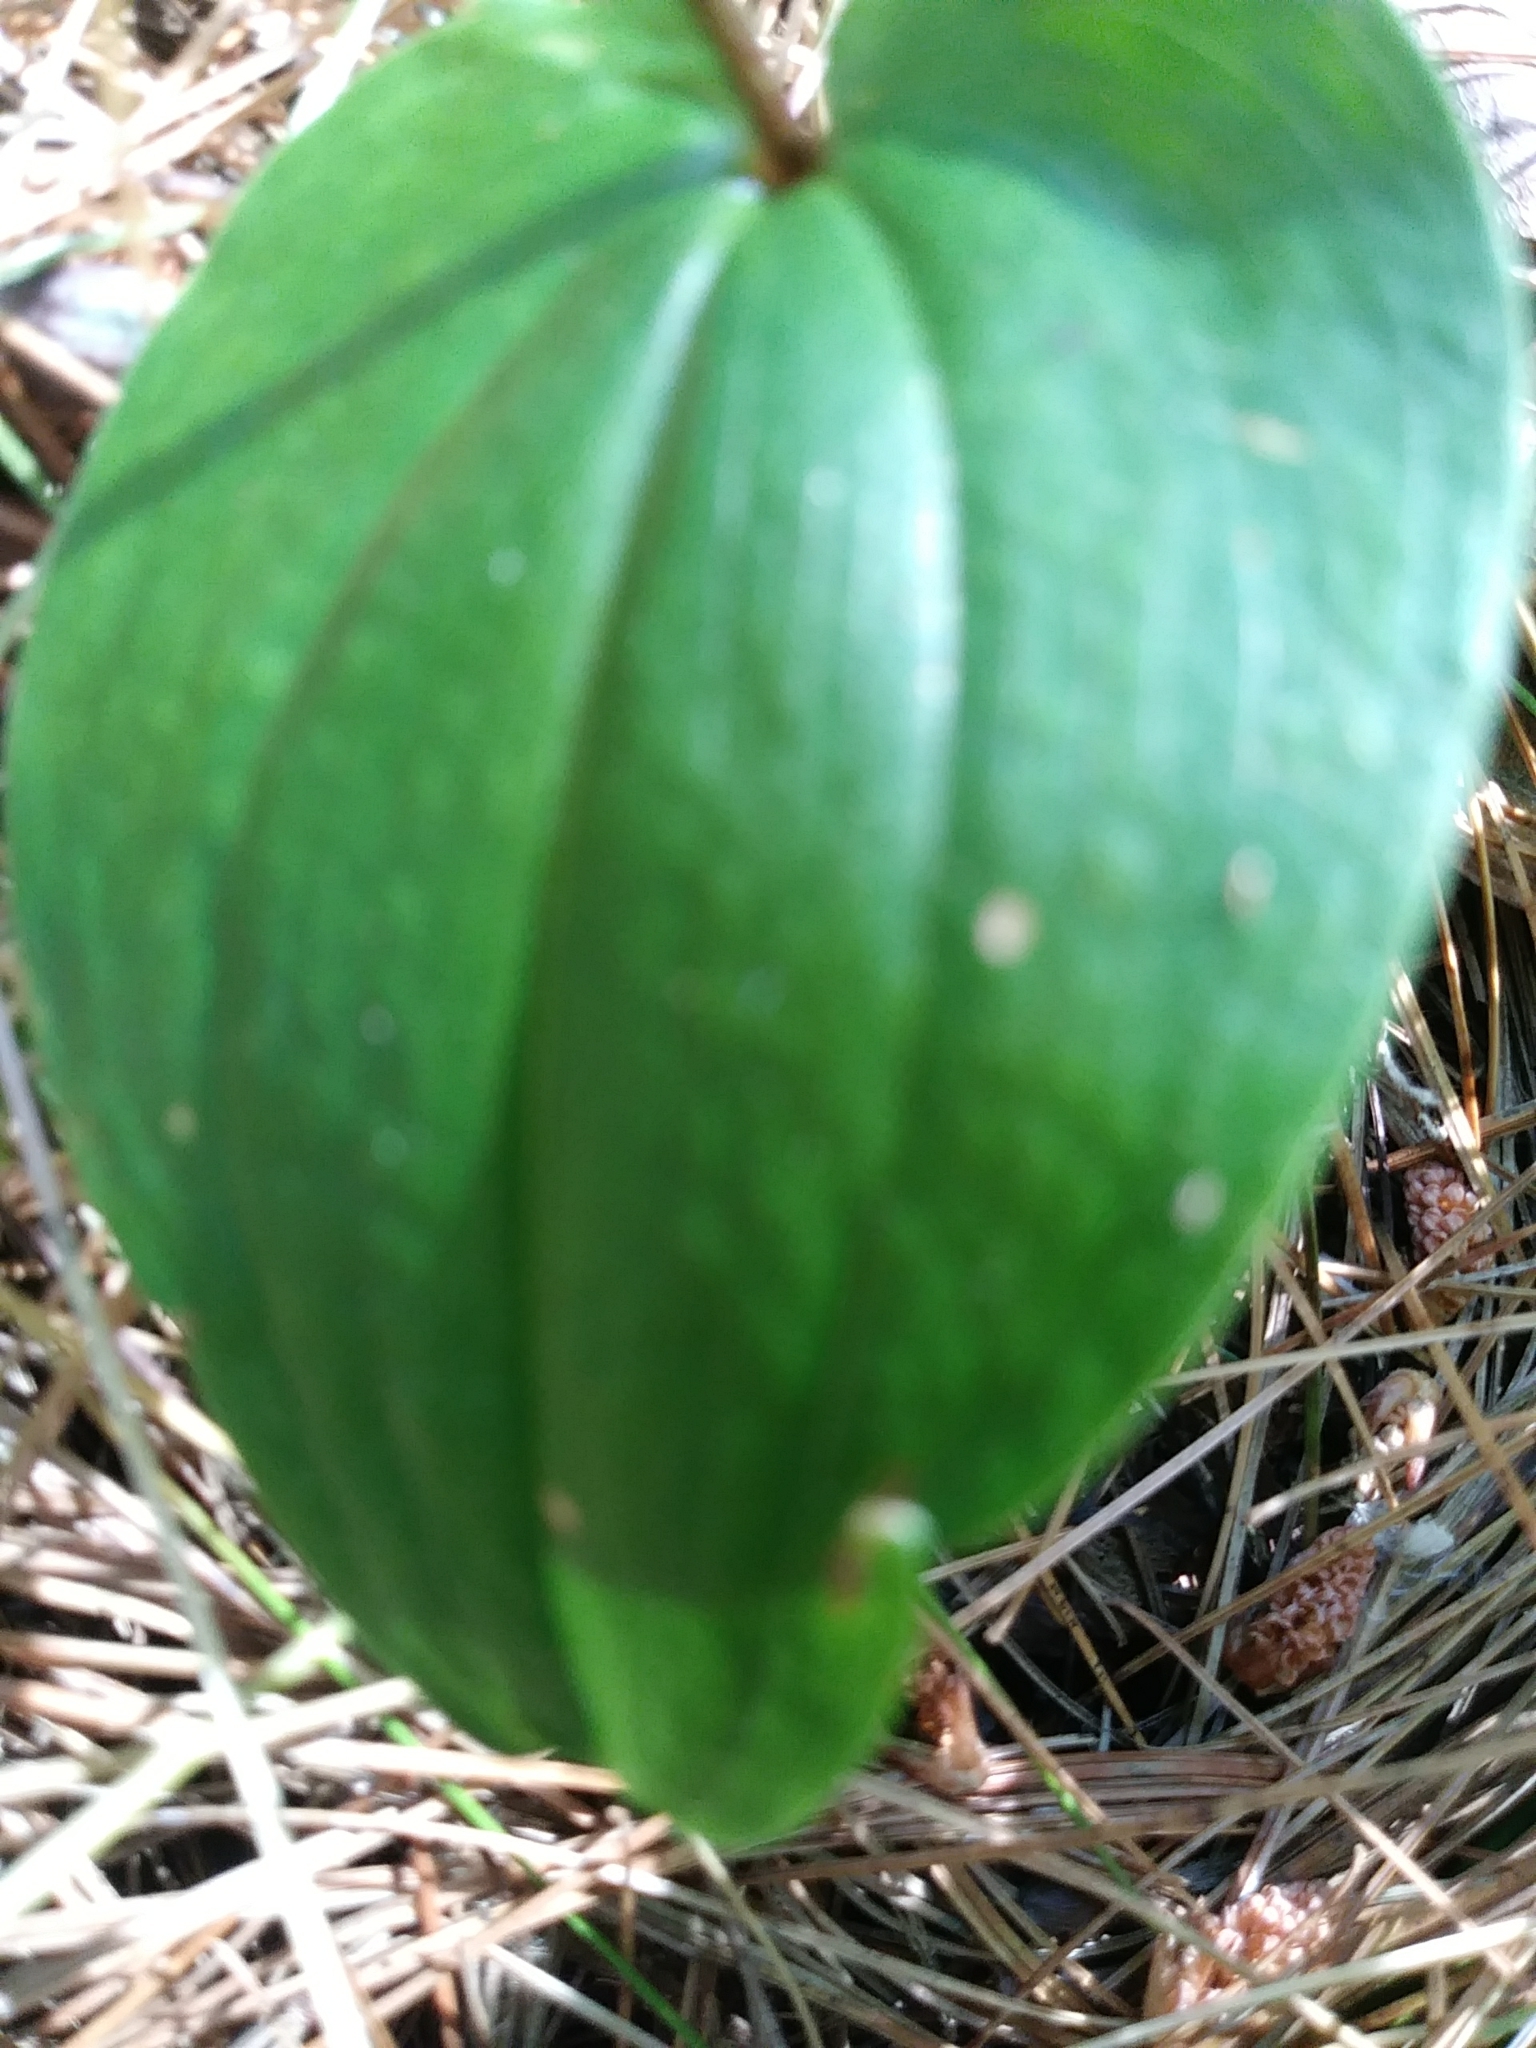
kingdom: Plantae
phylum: Tracheophyta
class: Liliopsida
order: Asparagales
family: Asparagaceae
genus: Maianthemum
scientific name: Maianthemum canadense
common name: False lily-of-the-valley
